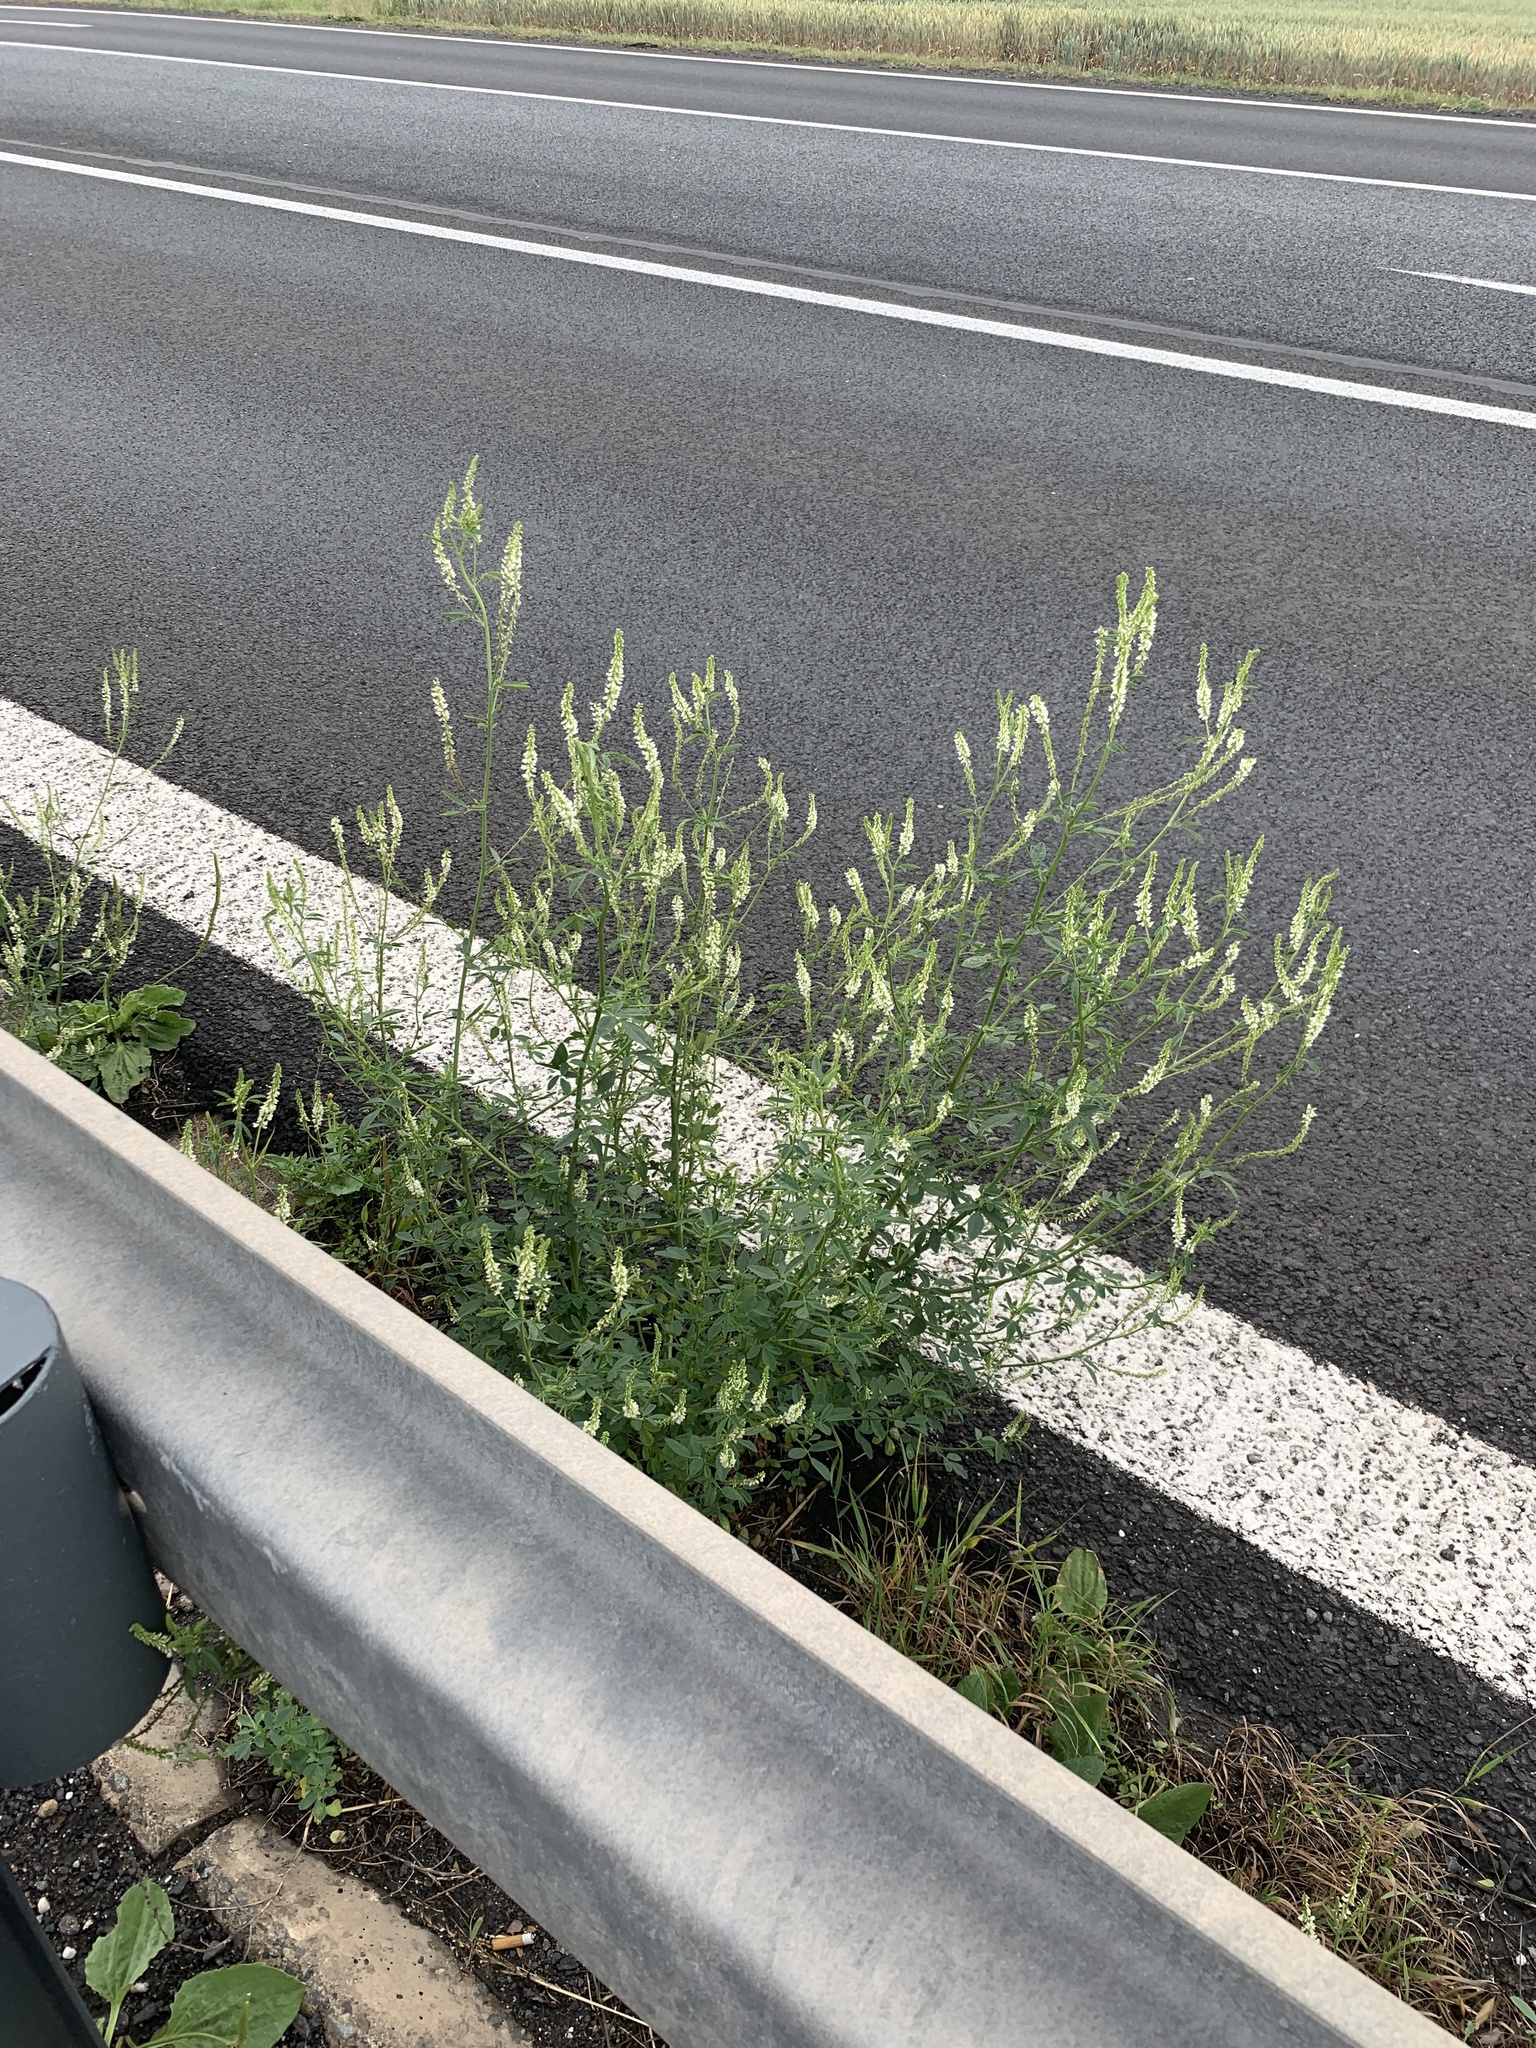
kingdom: Plantae
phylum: Tracheophyta
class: Magnoliopsida
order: Fabales
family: Fabaceae
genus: Melilotus
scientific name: Melilotus albus
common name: White melilot
